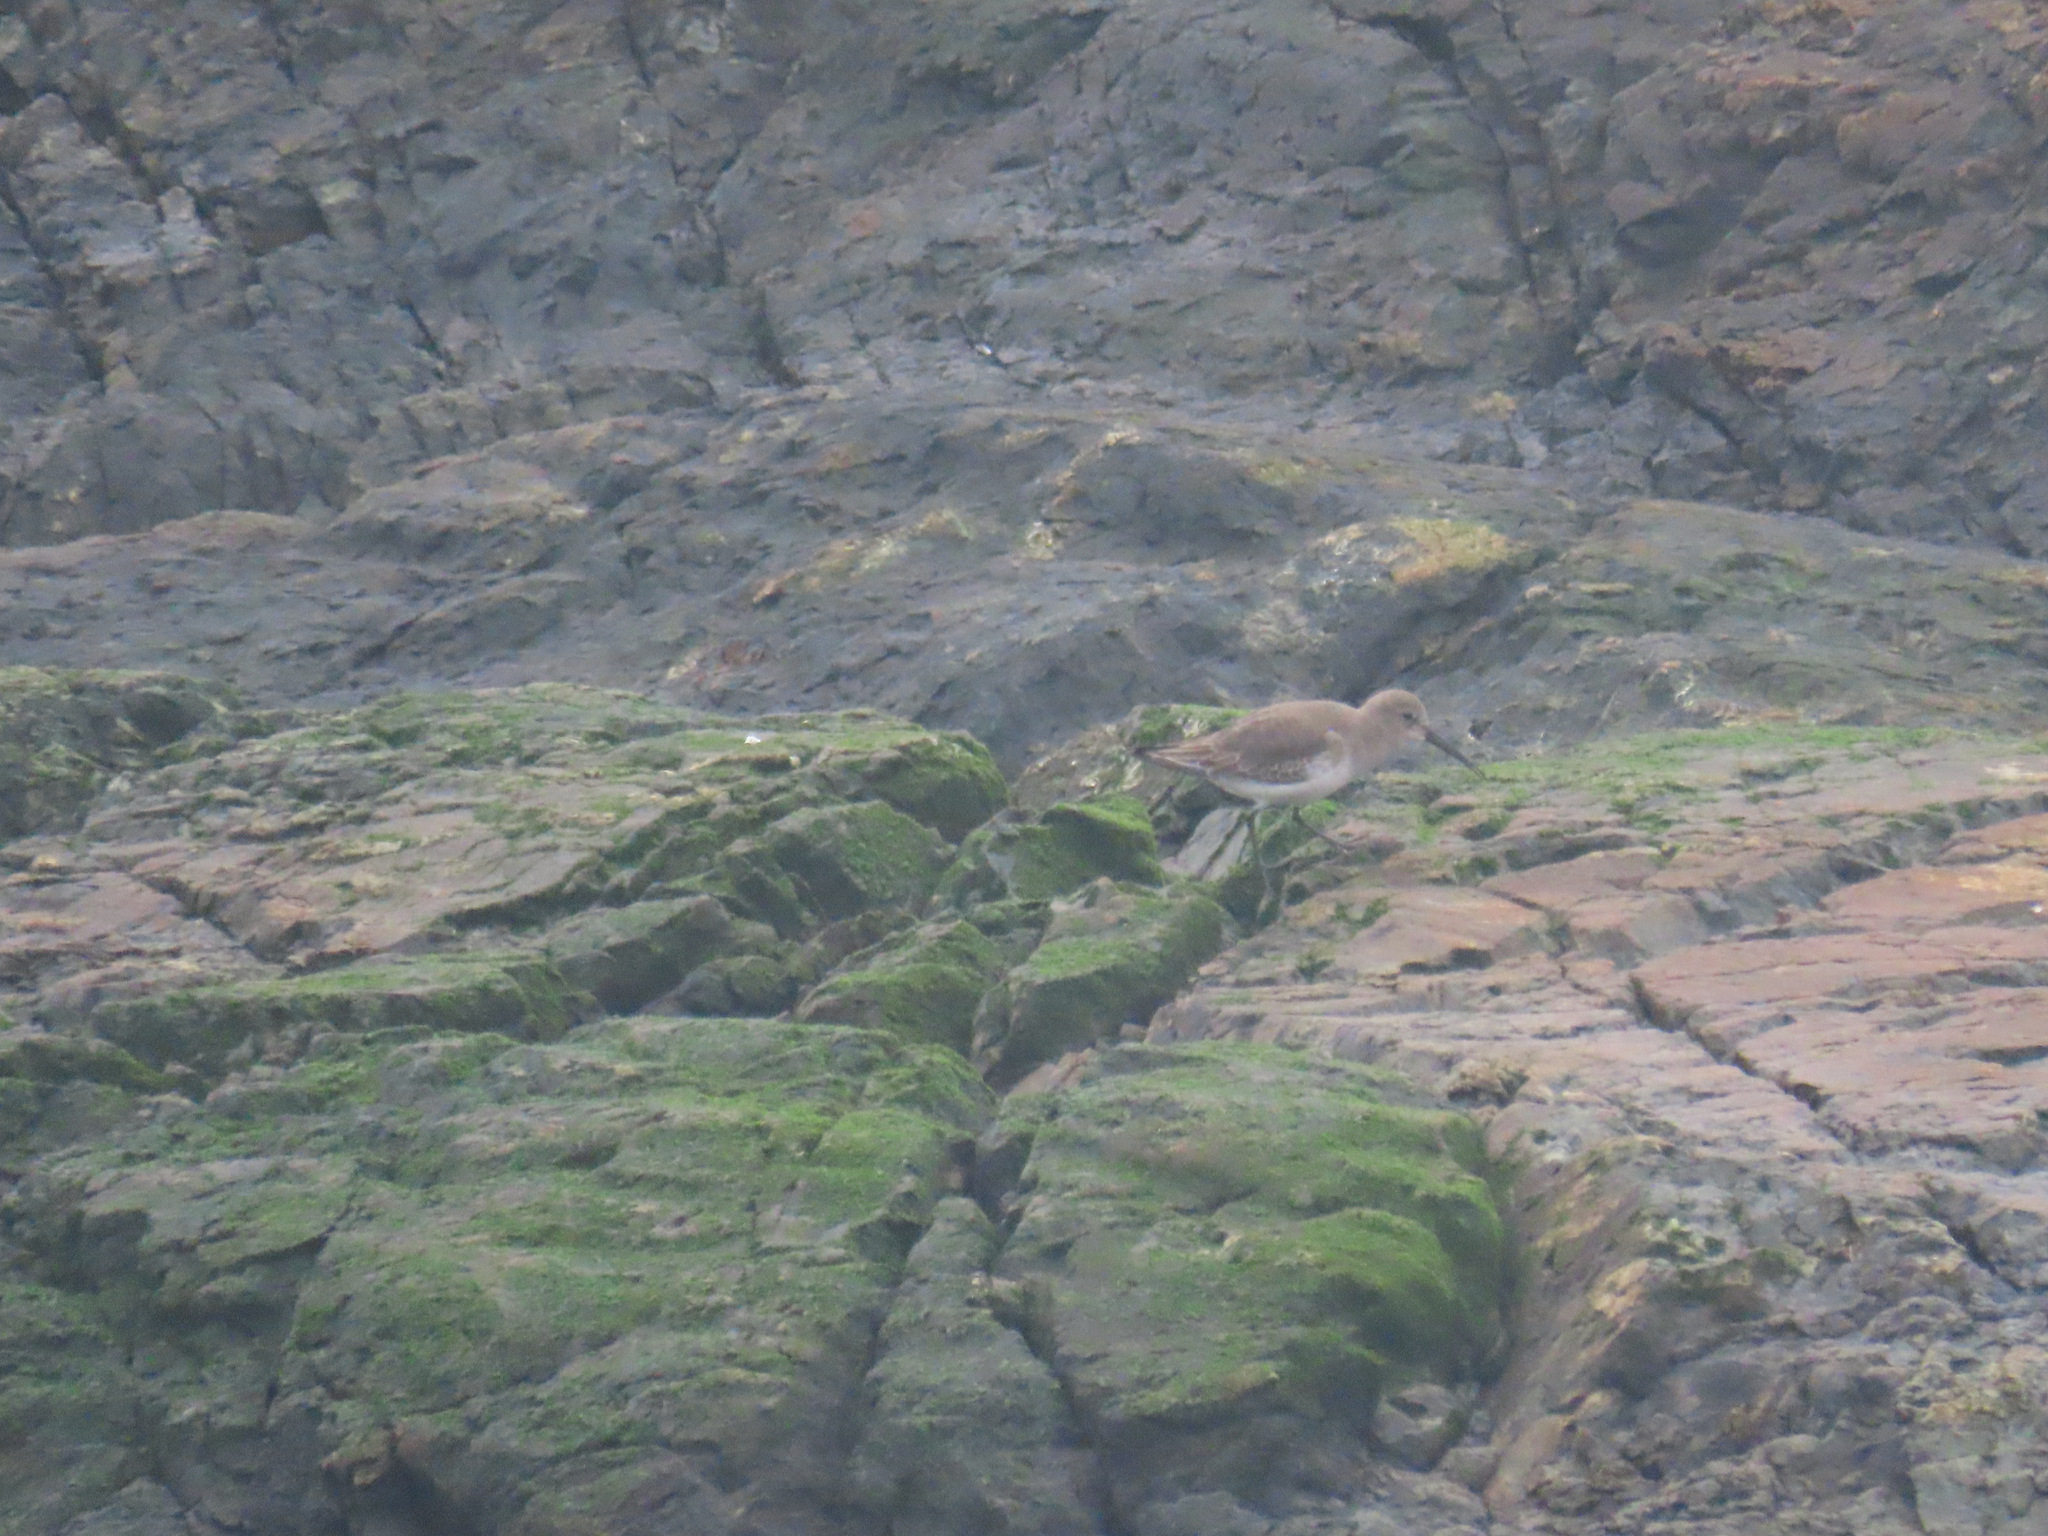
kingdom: Animalia
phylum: Chordata
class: Aves
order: Charadriiformes
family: Scolopacidae
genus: Calidris
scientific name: Calidris alpina
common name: Dunlin
